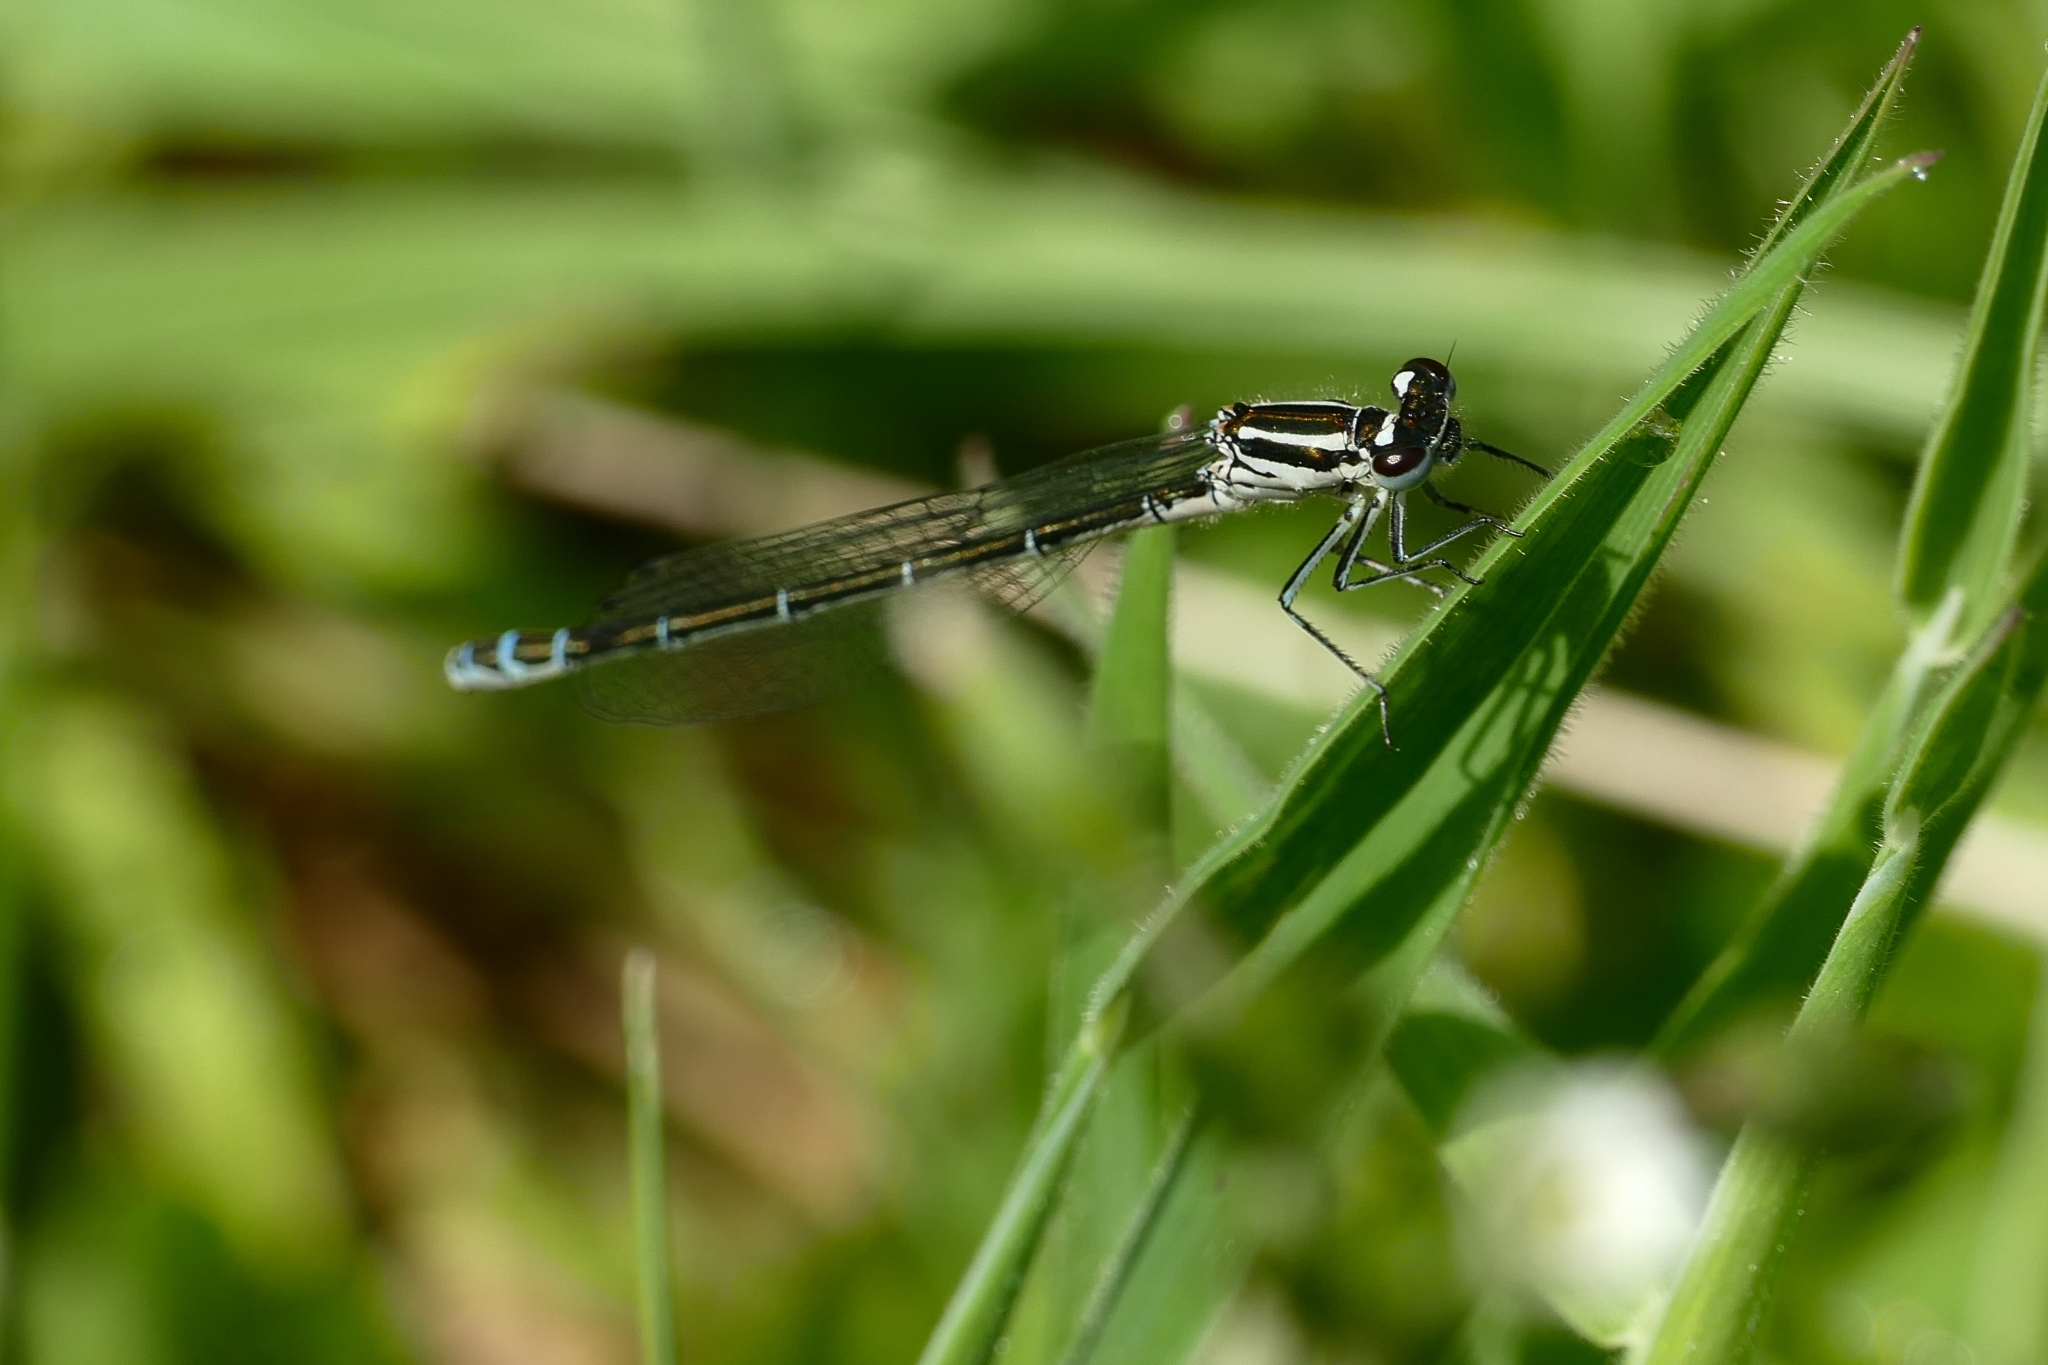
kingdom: Animalia
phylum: Arthropoda
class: Insecta
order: Odonata
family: Coenagrionidae
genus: Coenagrion
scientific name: Coenagrion puella
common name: Azure damselfly
